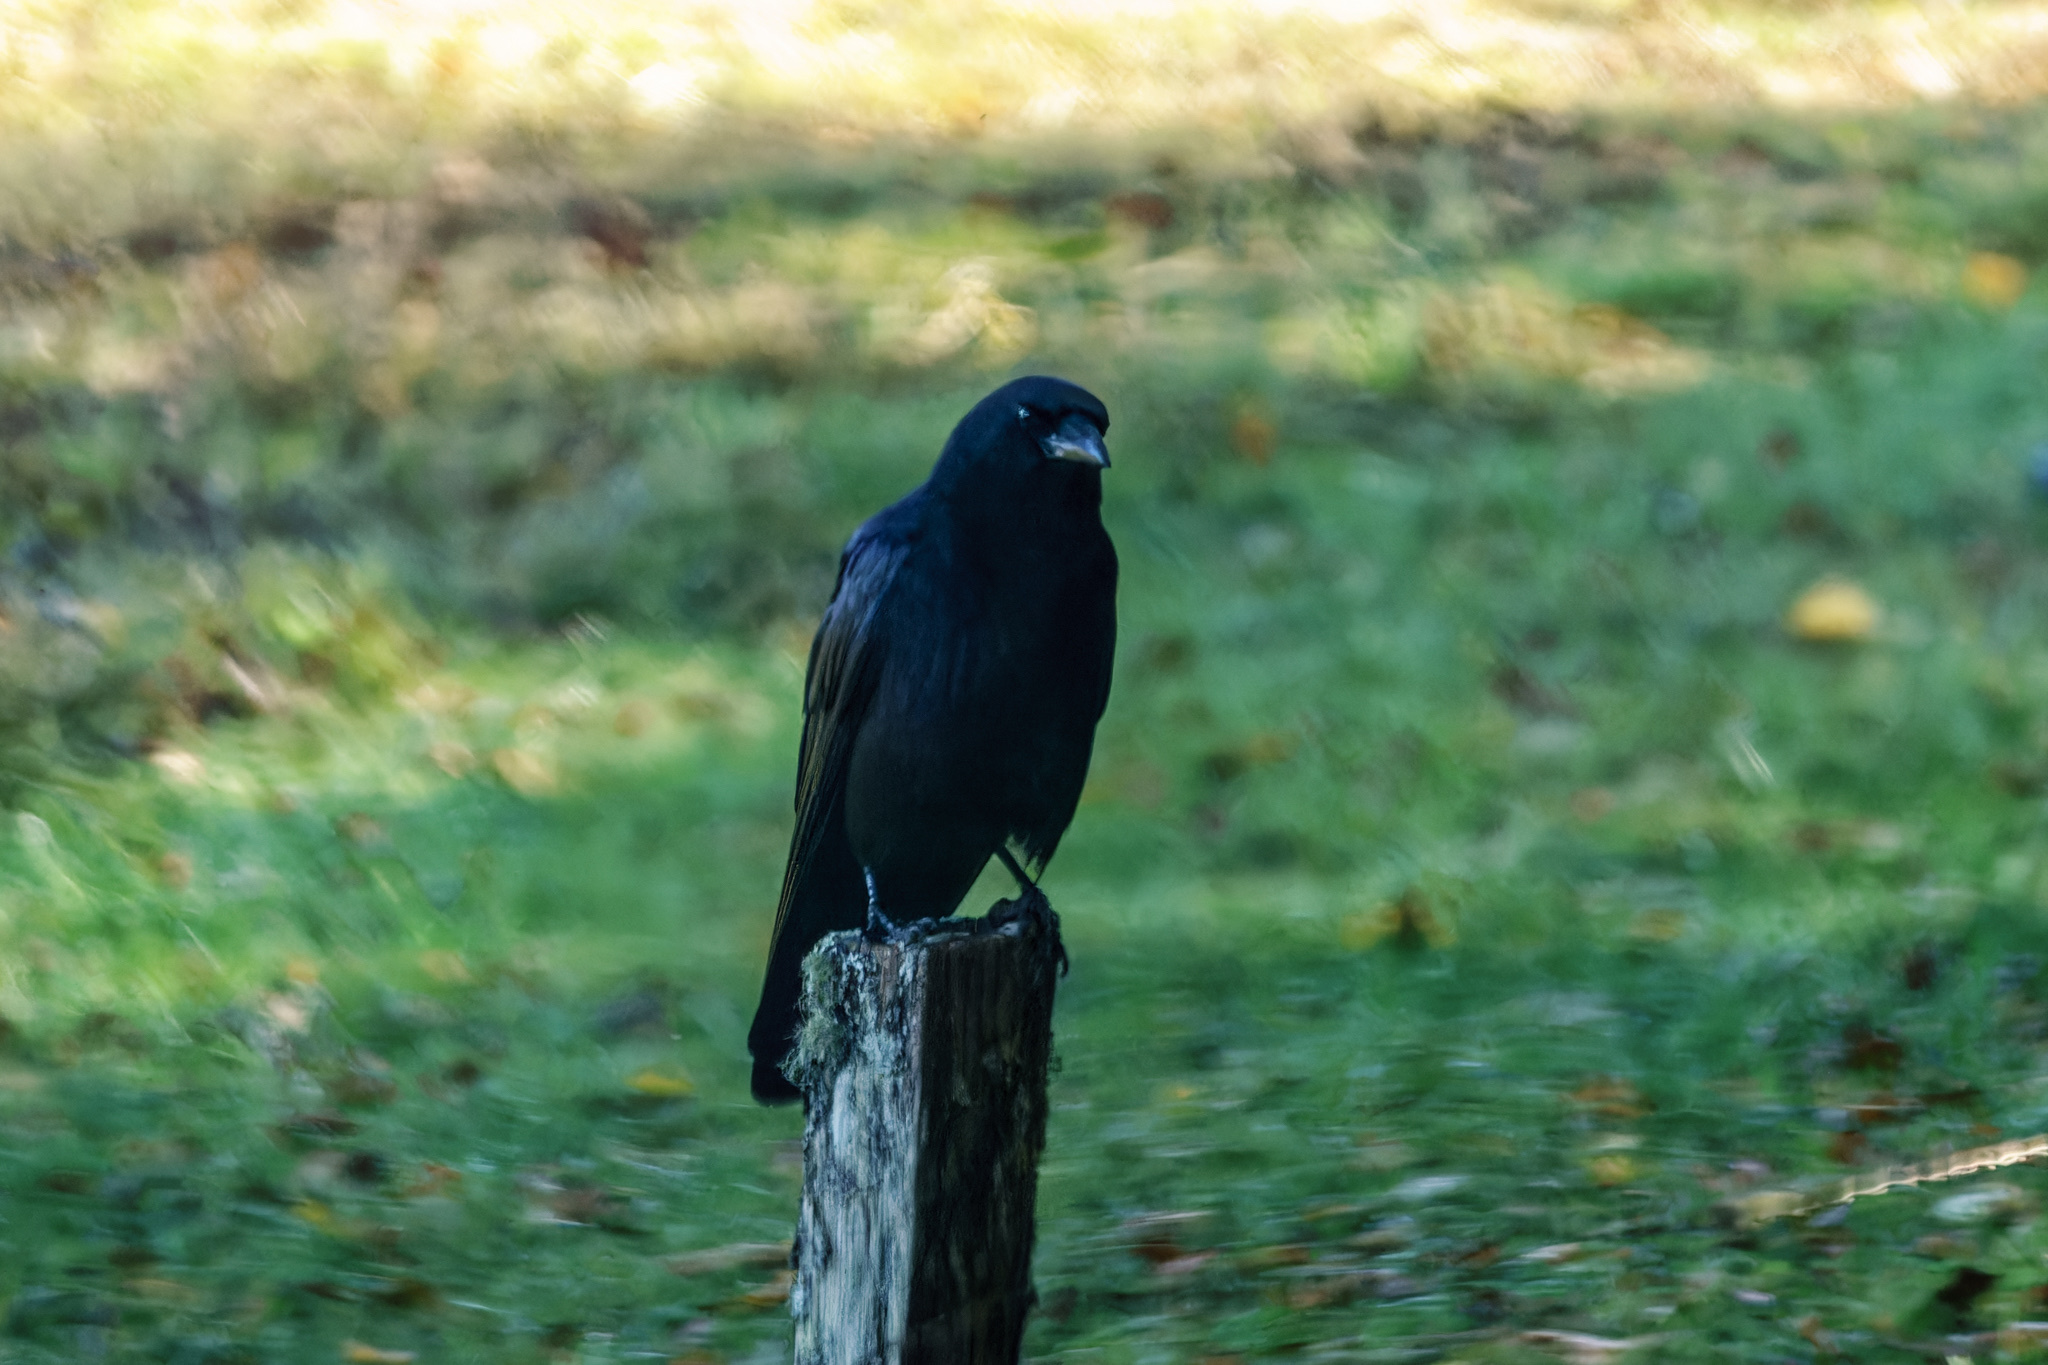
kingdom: Animalia
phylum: Chordata
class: Aves
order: Passeriformes
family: Corvidae
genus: Corvus
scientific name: Corvus brachyrhynchos
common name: American crow
